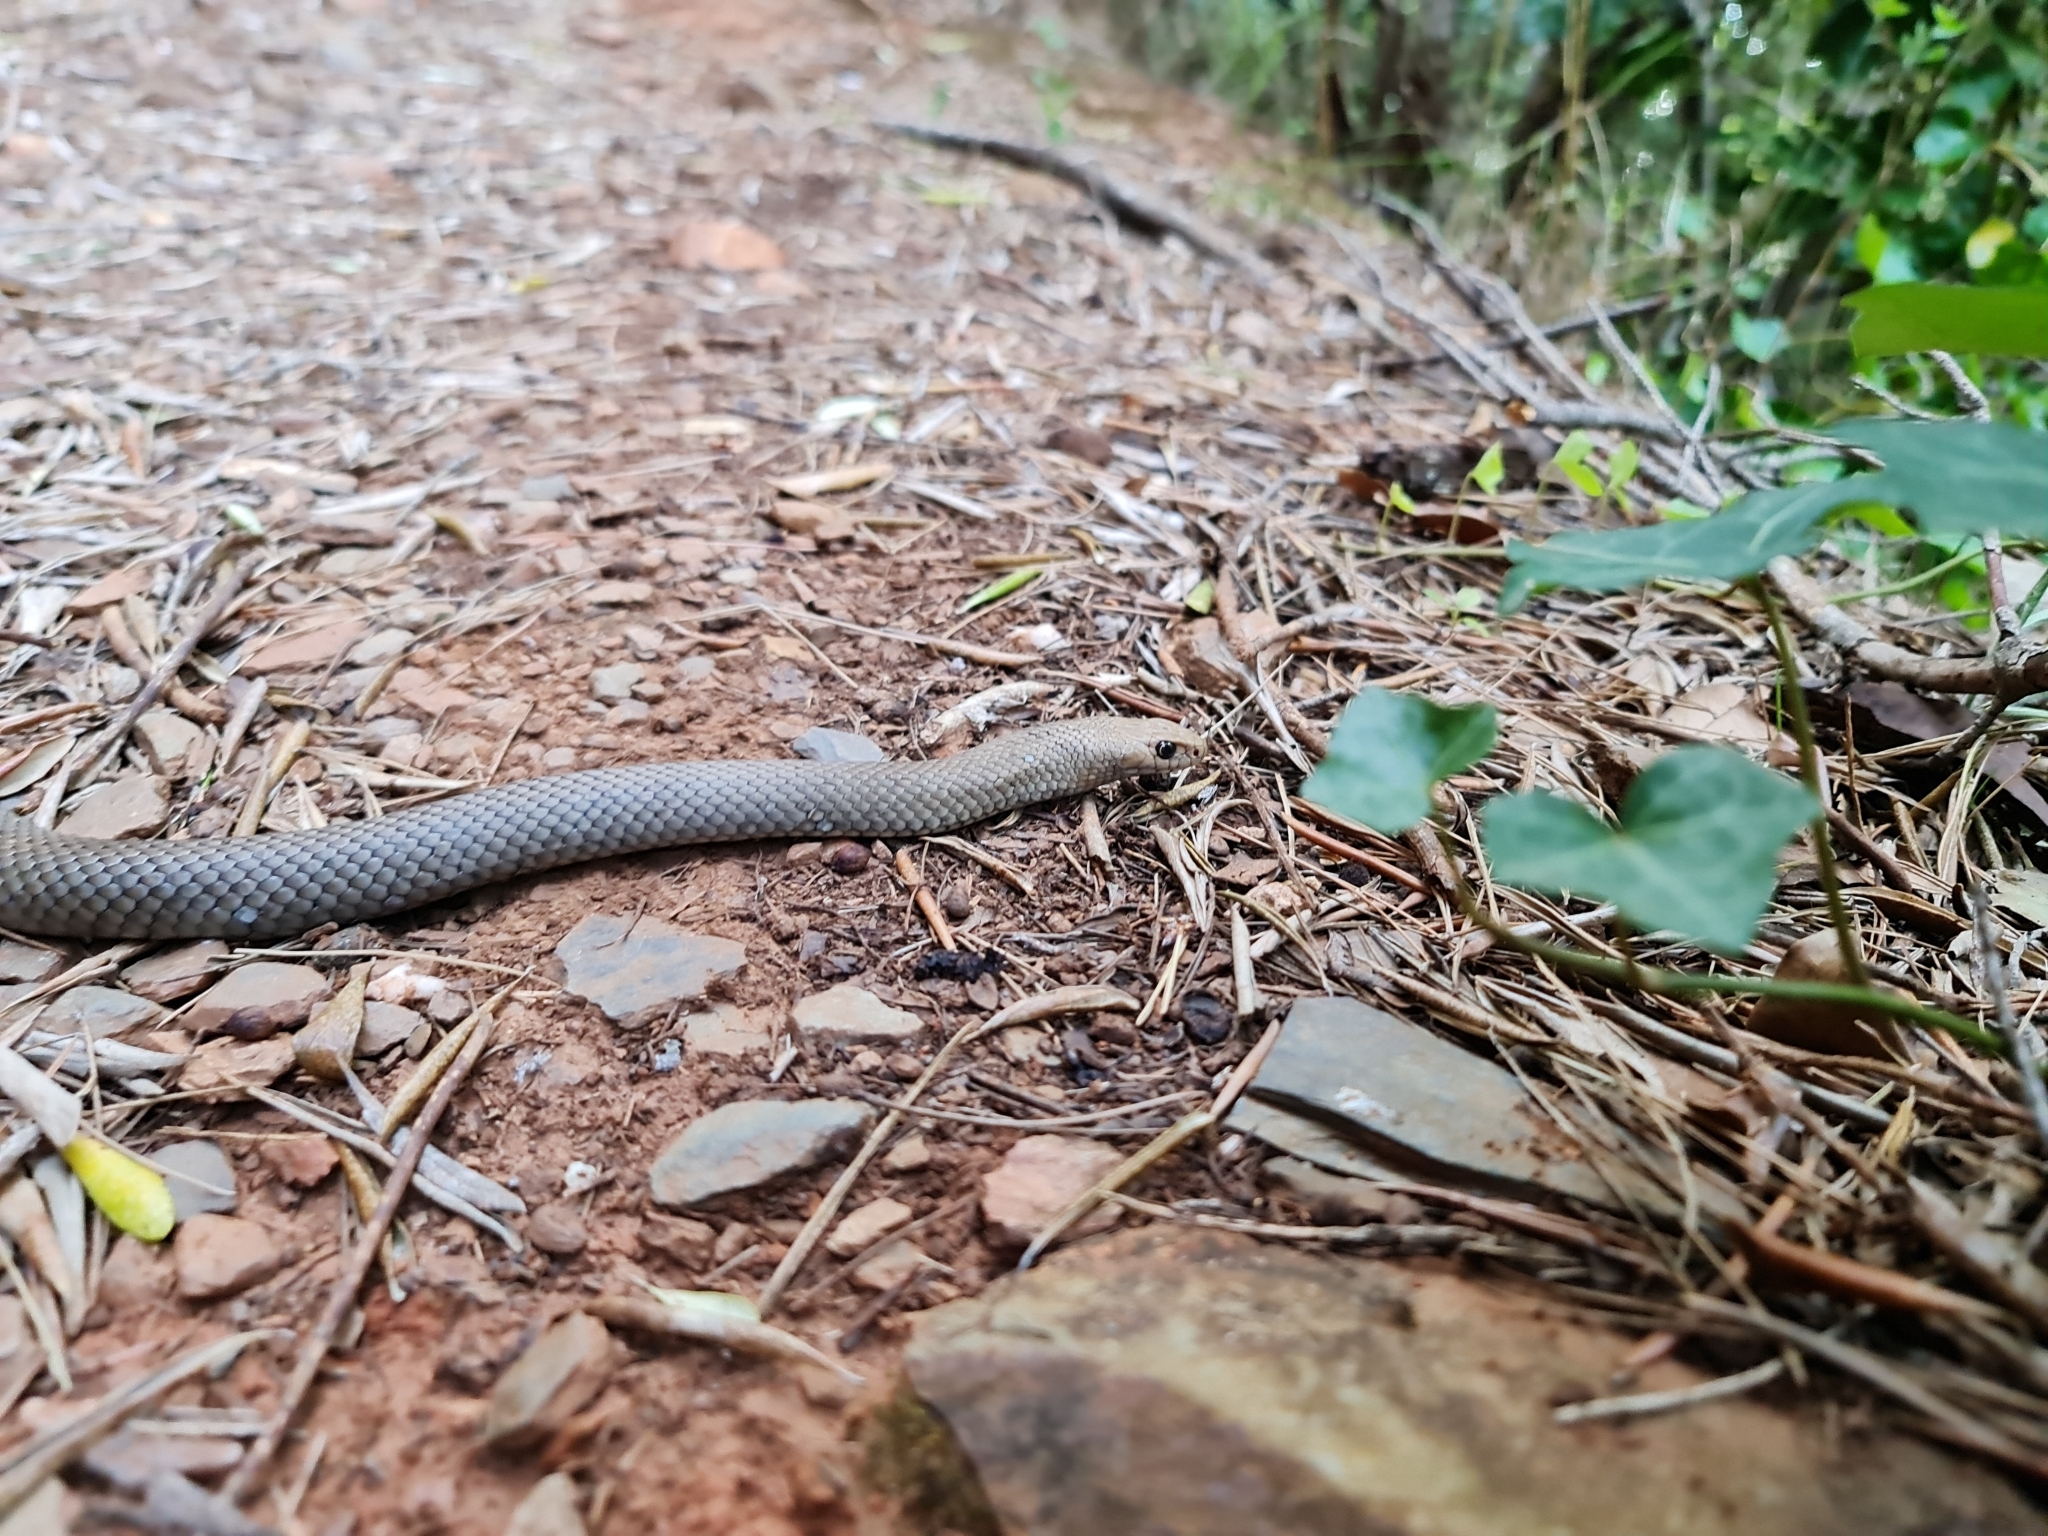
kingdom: Animalia
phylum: Chordata
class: Squamata
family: Elapidae
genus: Pseudonaja
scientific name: Pseudonaja textilis
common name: Eastern brown snake
